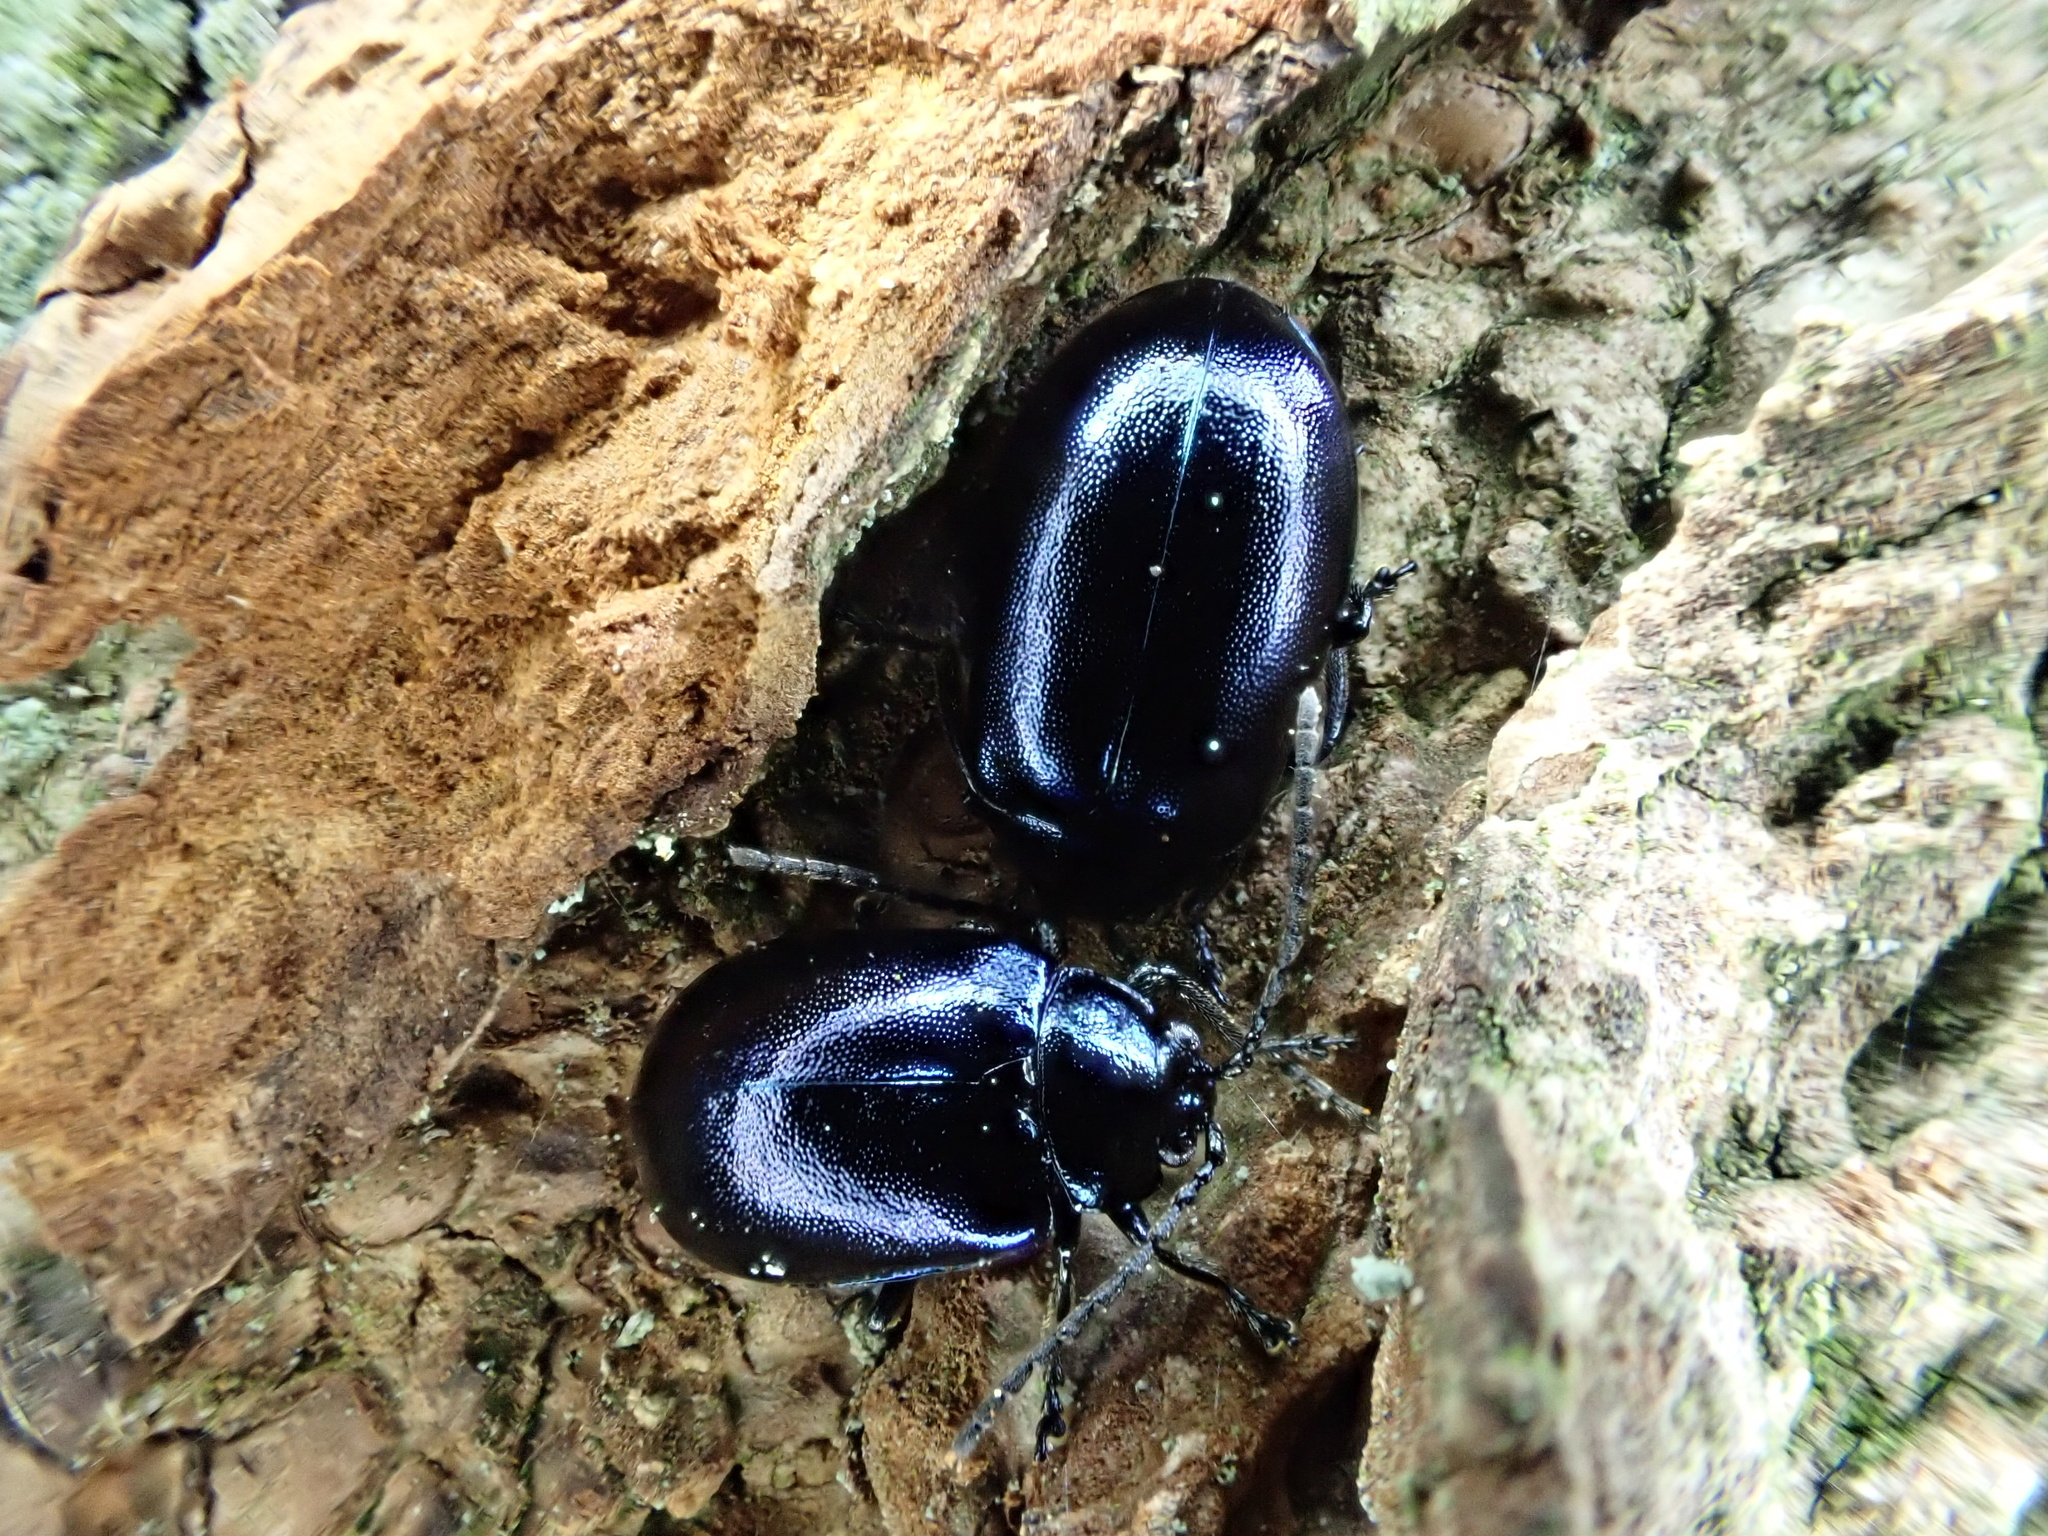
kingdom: Animalia
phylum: Arthropoda
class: Insecta
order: Coleoptera
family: Chrysomelidae
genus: Agelastica
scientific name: Agelastica alni
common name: Alder leaf beetle
